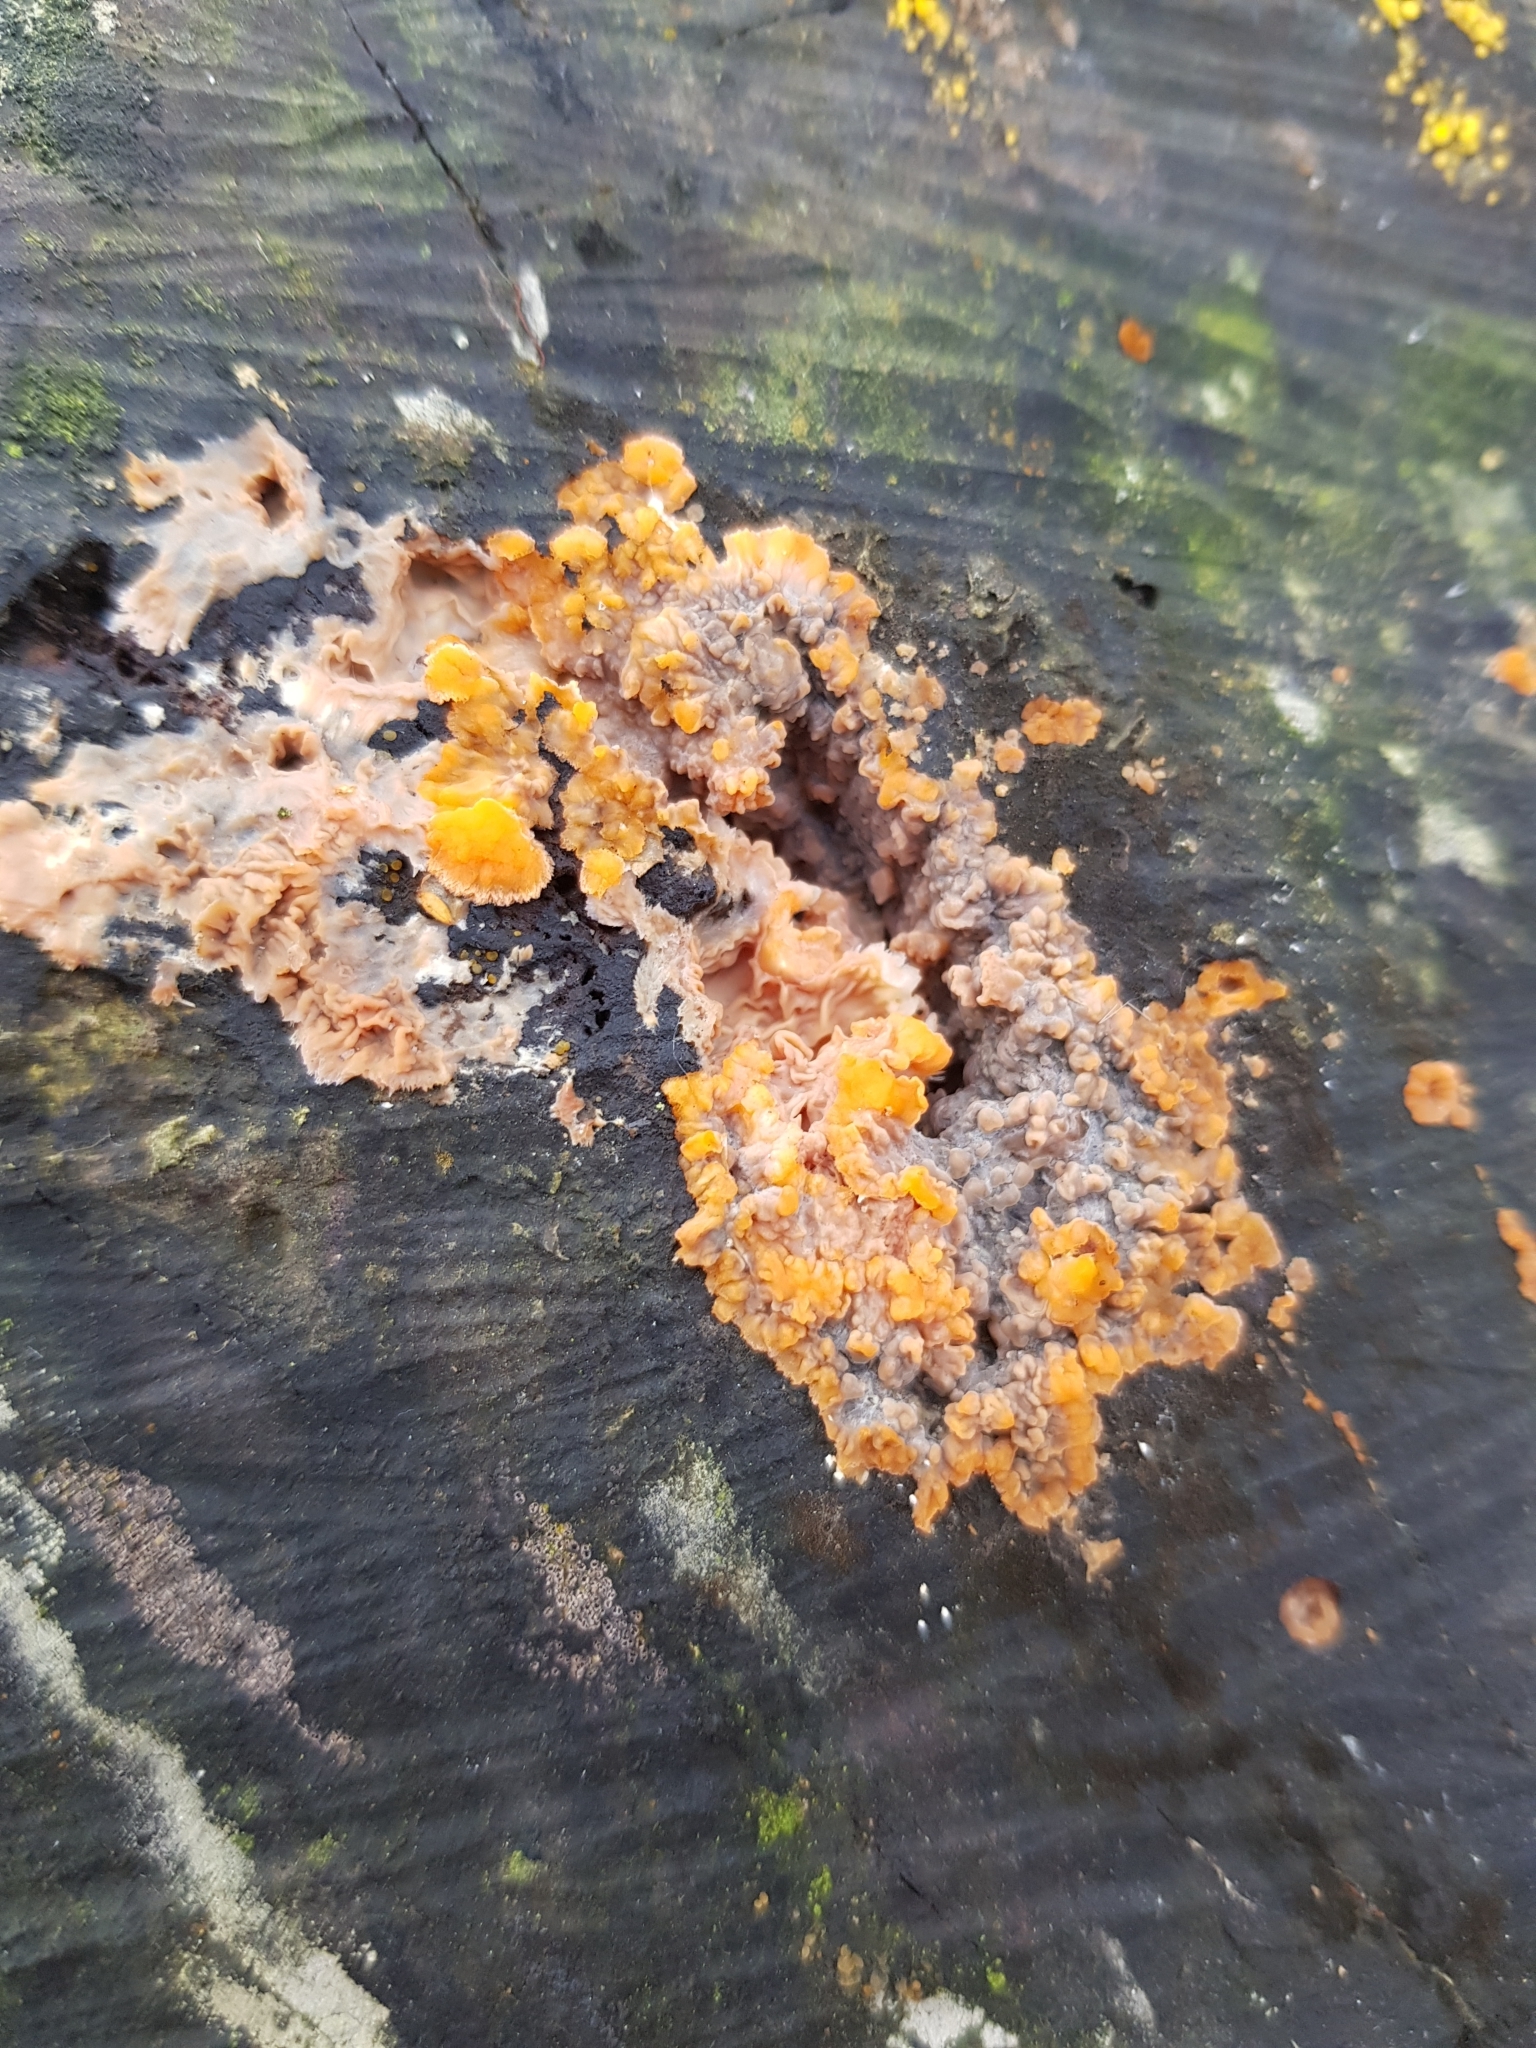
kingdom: Fungi
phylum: Basidiomycota
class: Agaricomycetes
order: Polyporales
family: Meruliaceae
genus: Phlebia
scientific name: Phlebia radiata
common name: Wrinkled crust
